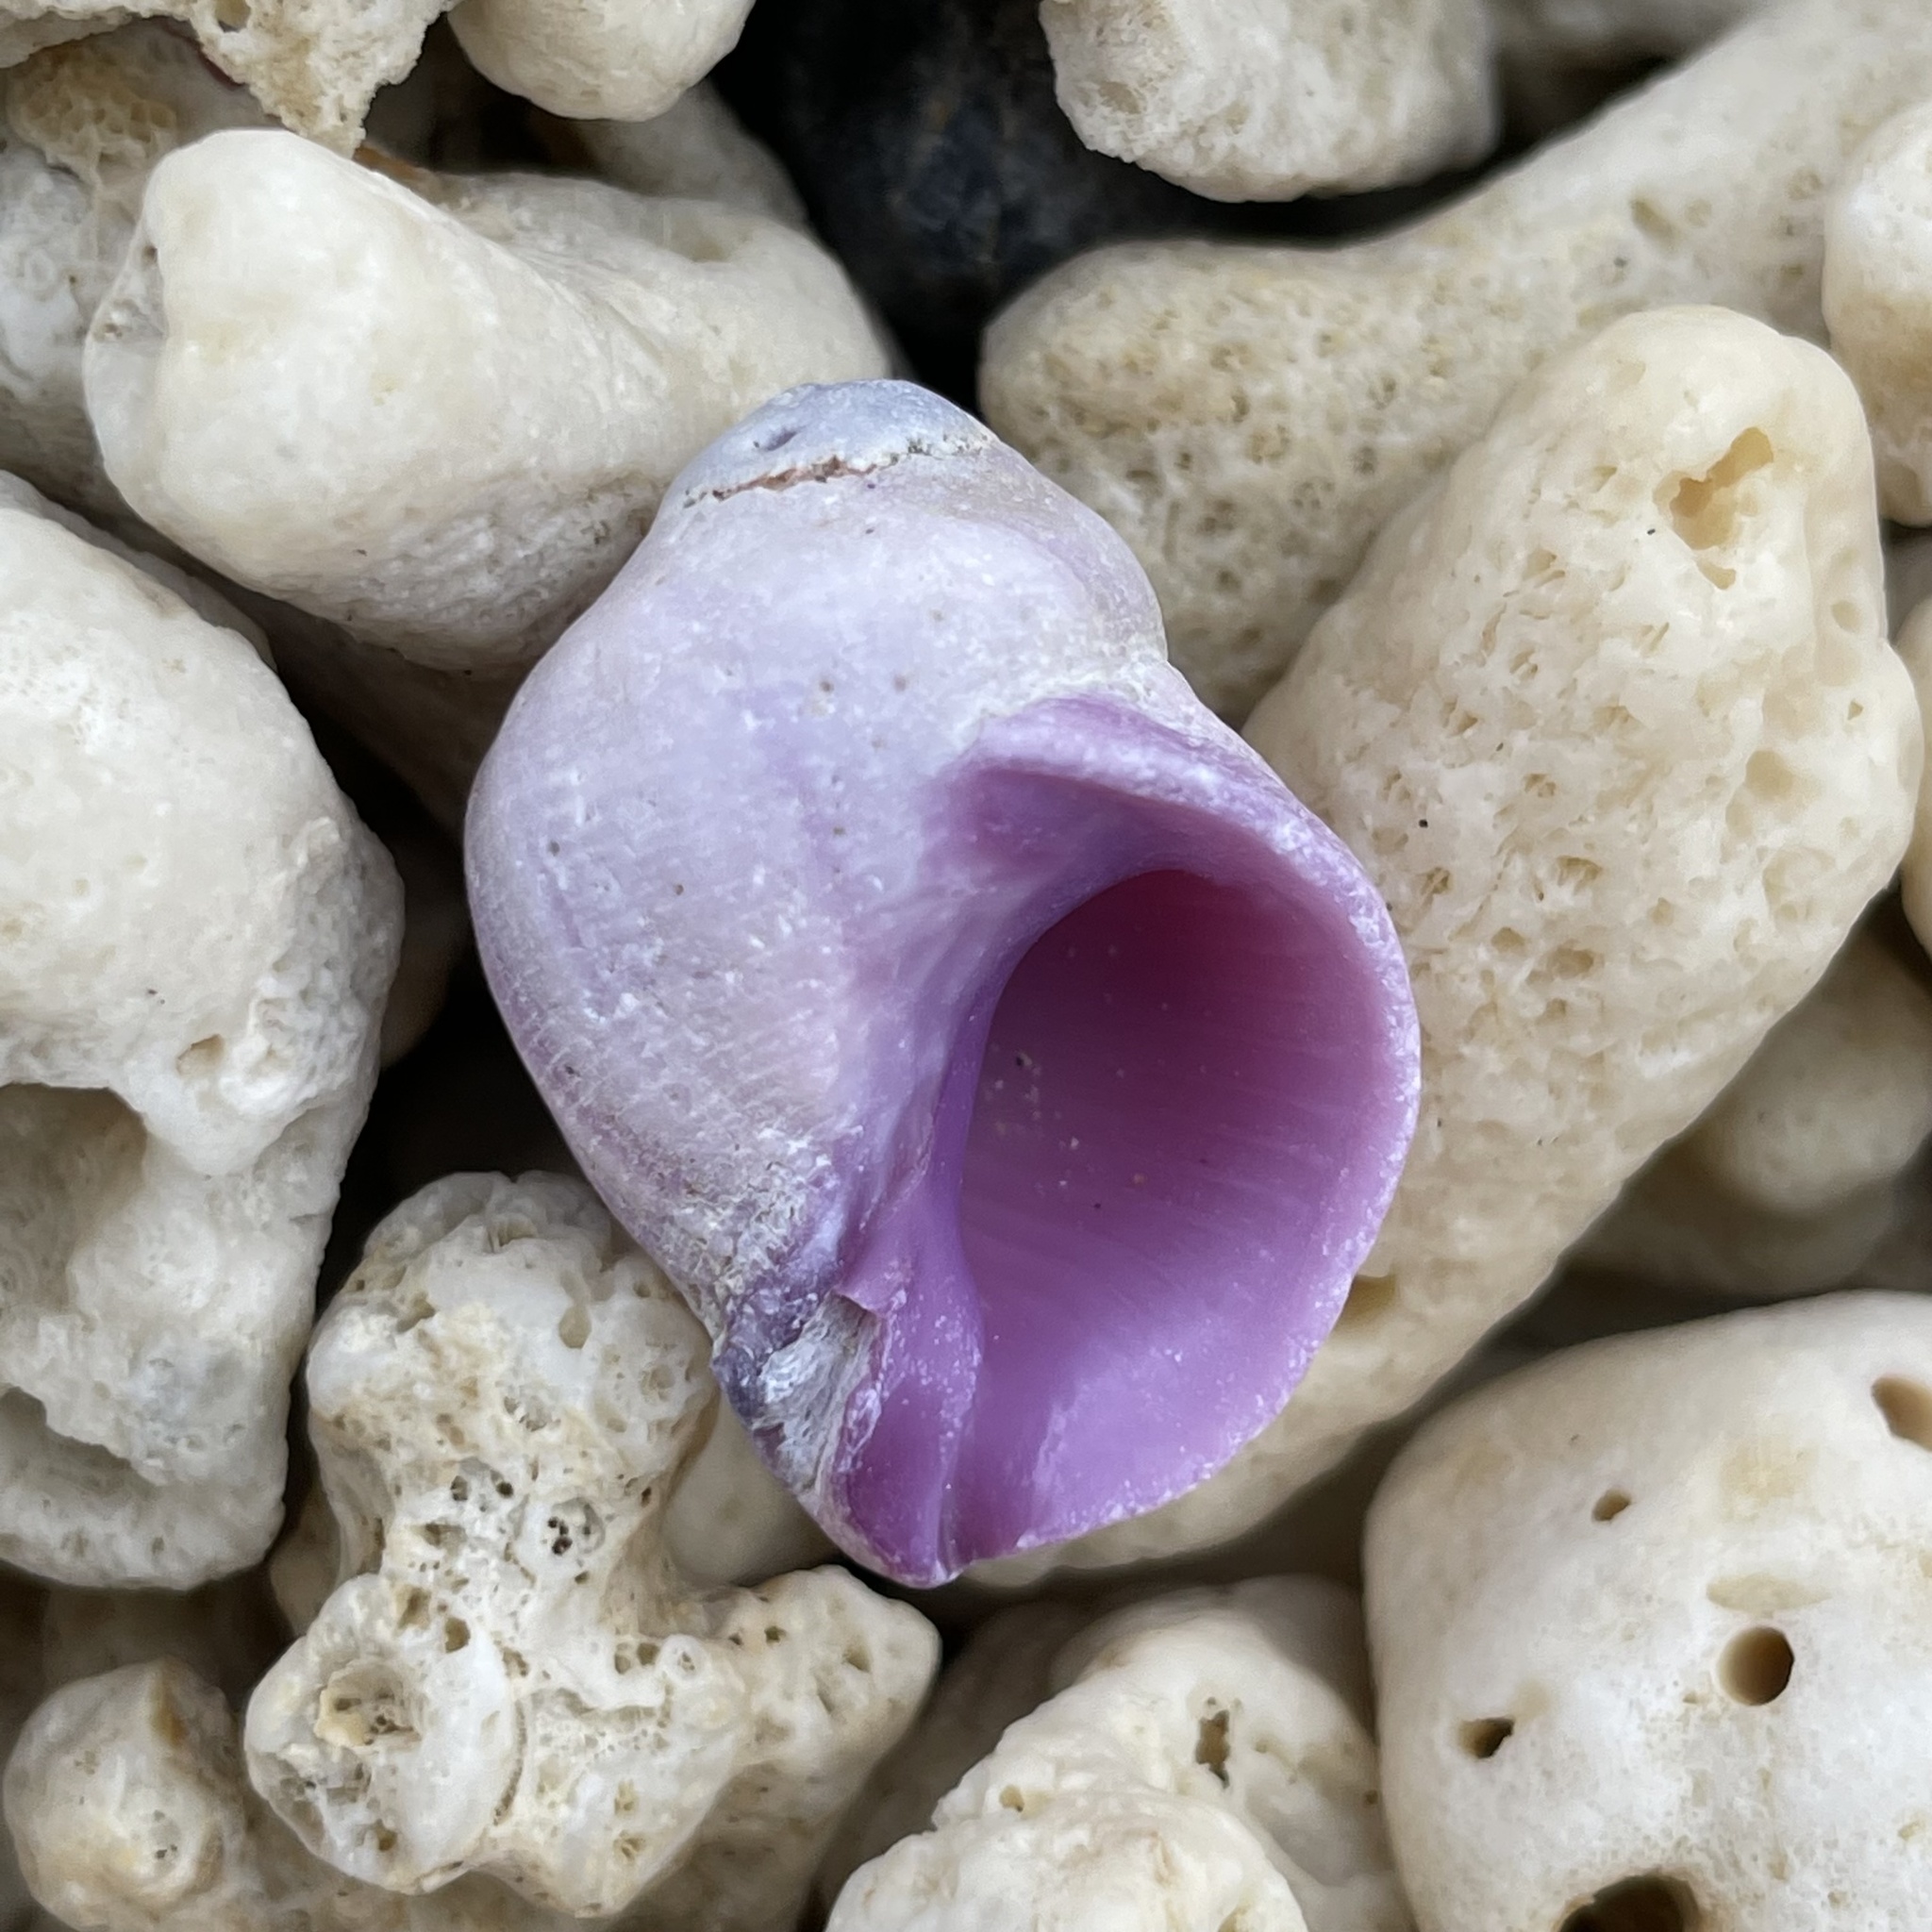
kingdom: Animalia
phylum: Mollusca
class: Gastropoda
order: Neogastropoda
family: Muricidae
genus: Coralliophila
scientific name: Coralliophila violacea
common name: Purple coral snail
